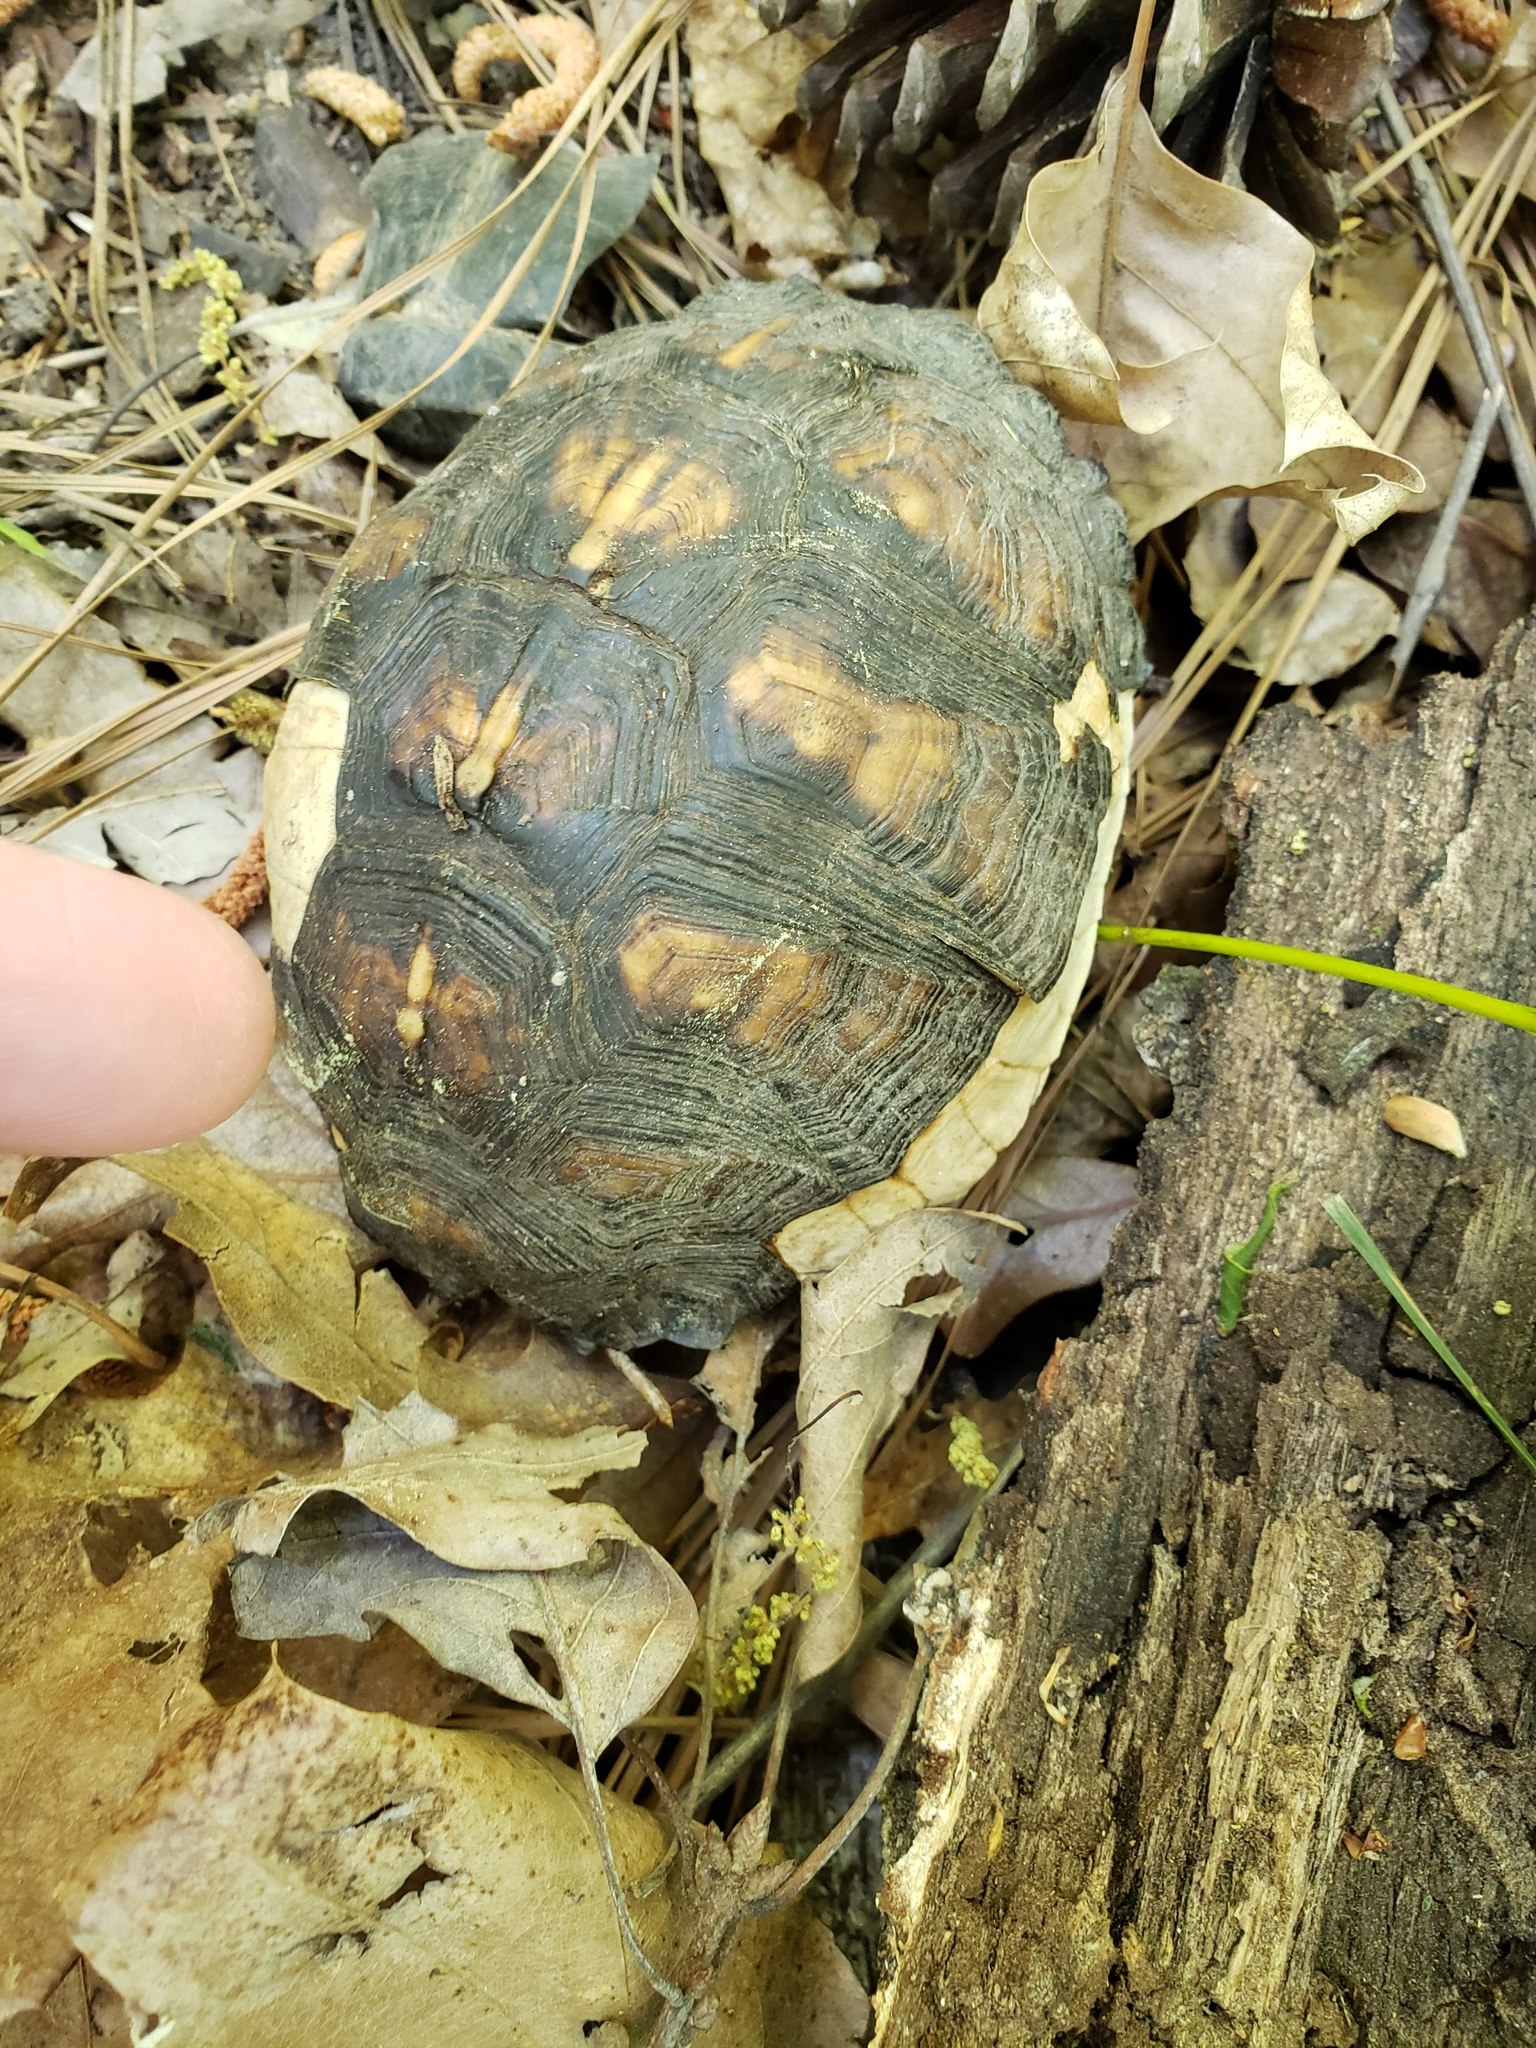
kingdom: Animalia
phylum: Chordata
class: Testudines
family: Emydidae
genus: Terrapene
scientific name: Terrapene carolina
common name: Common box turtle
